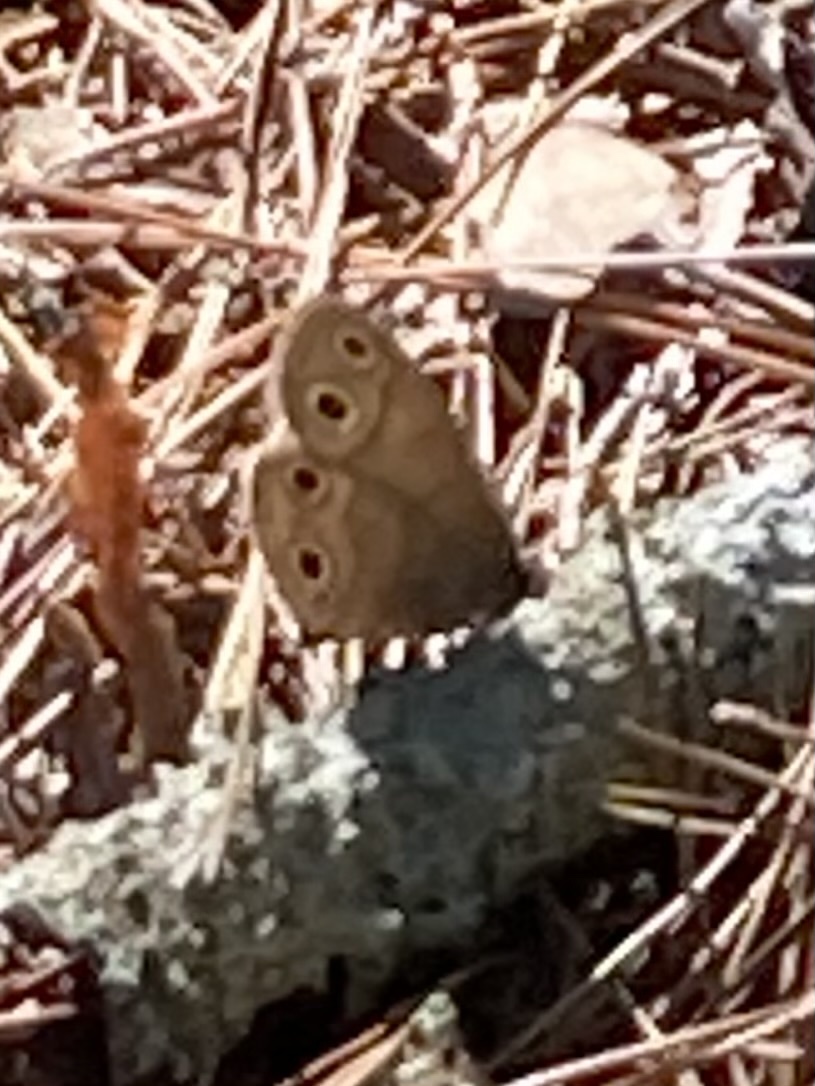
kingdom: Animalia
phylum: Arthropoda
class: Insecta
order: Lepidoptera
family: Nymphalidae
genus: Euptychia
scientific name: Euptychia cymela
